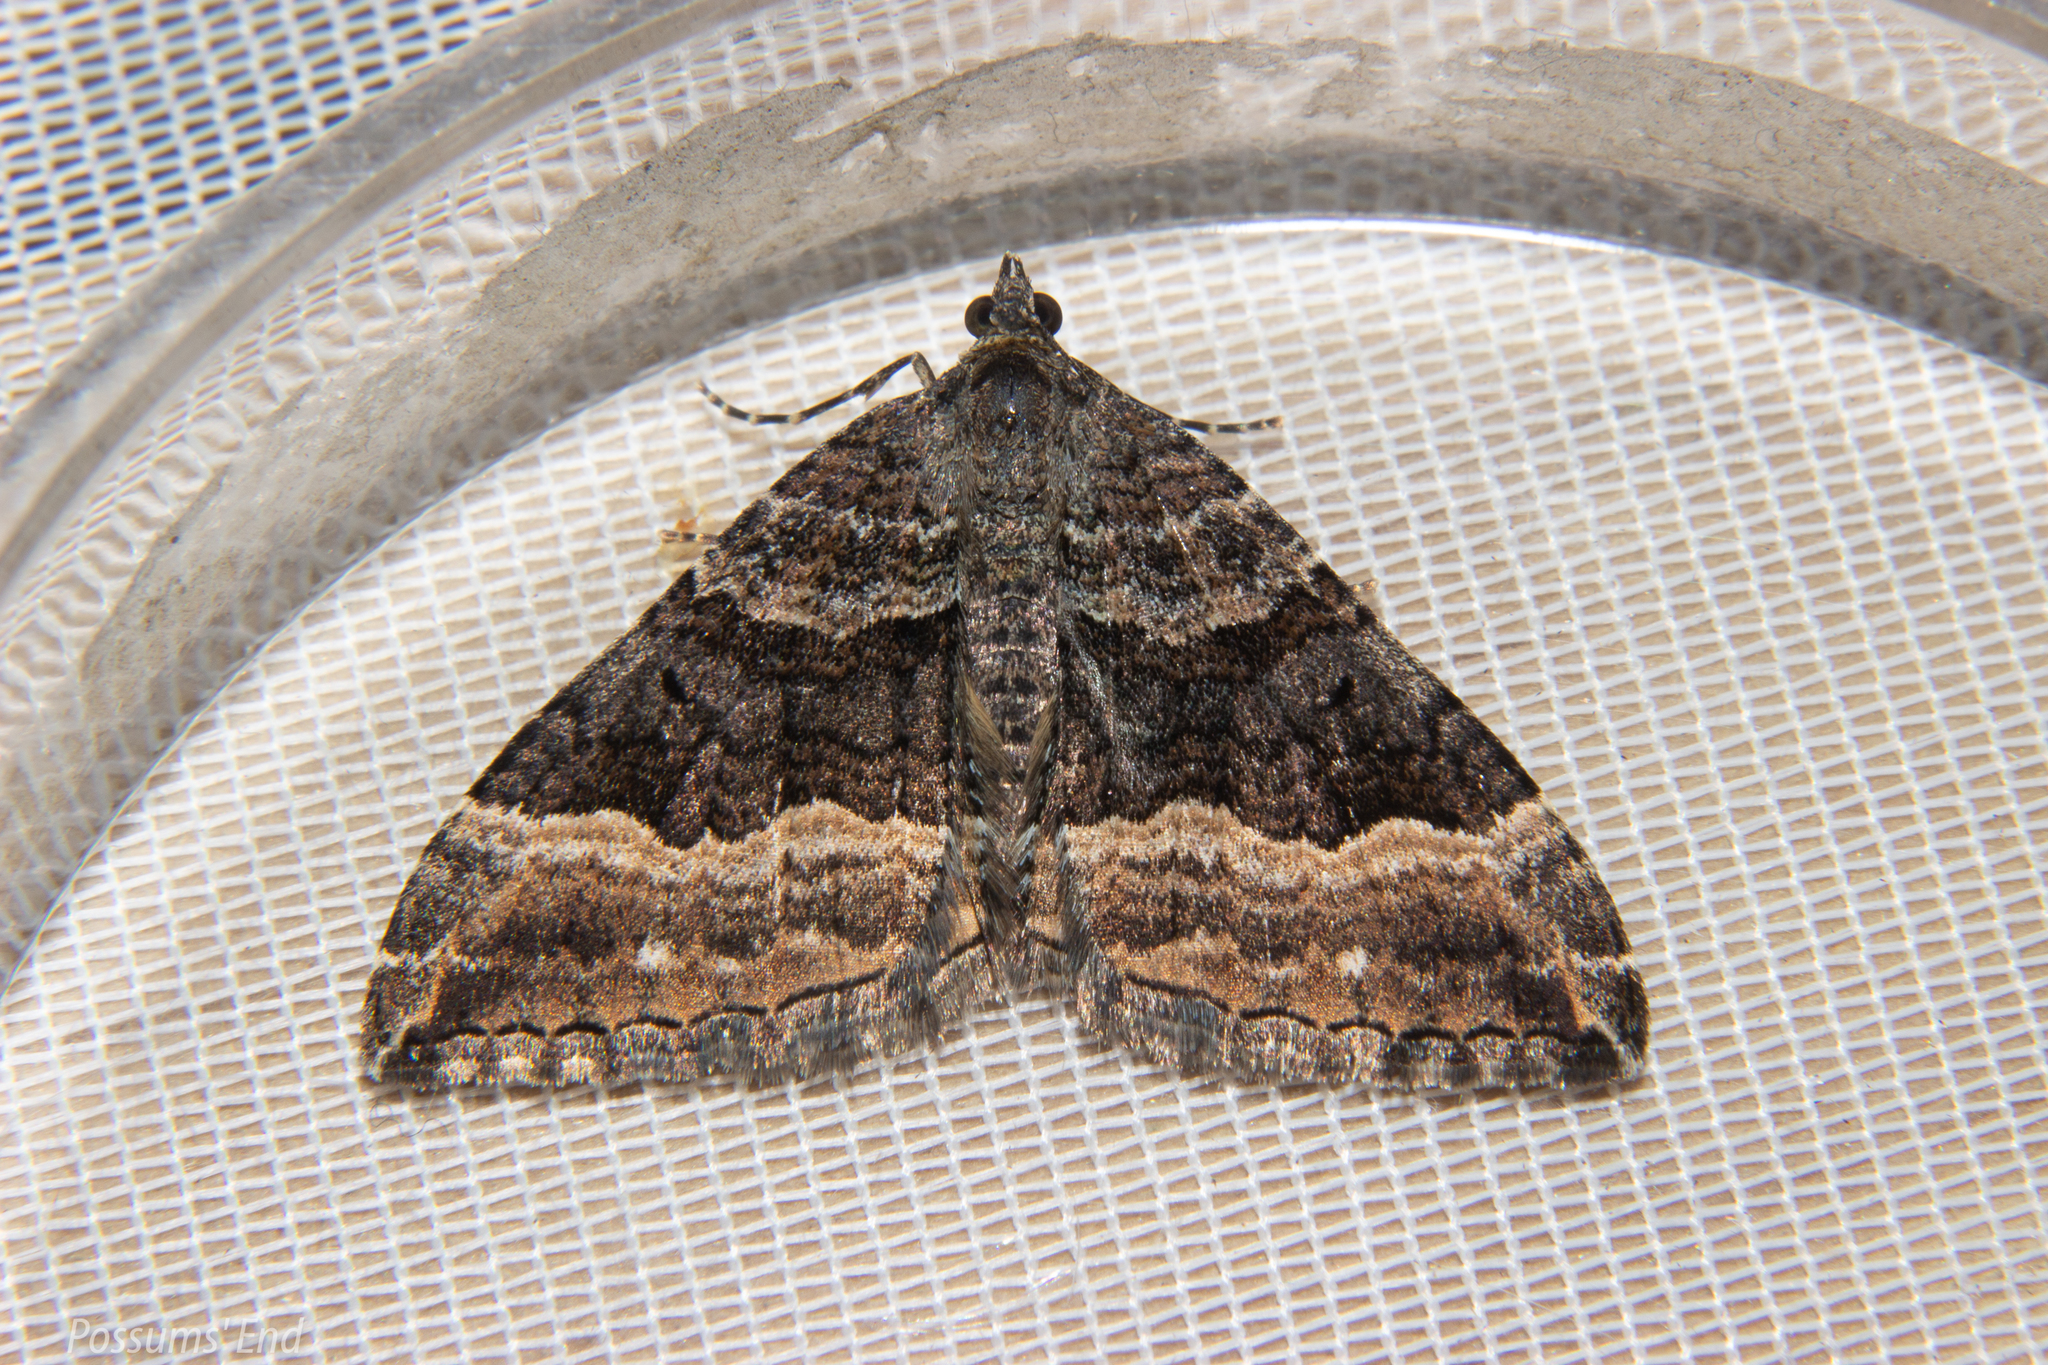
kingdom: Animalia
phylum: Arthropoda
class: Insecta
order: Lepidoptera
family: Geometridae
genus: Hydriomena
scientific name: Hydriomena deltoidata
